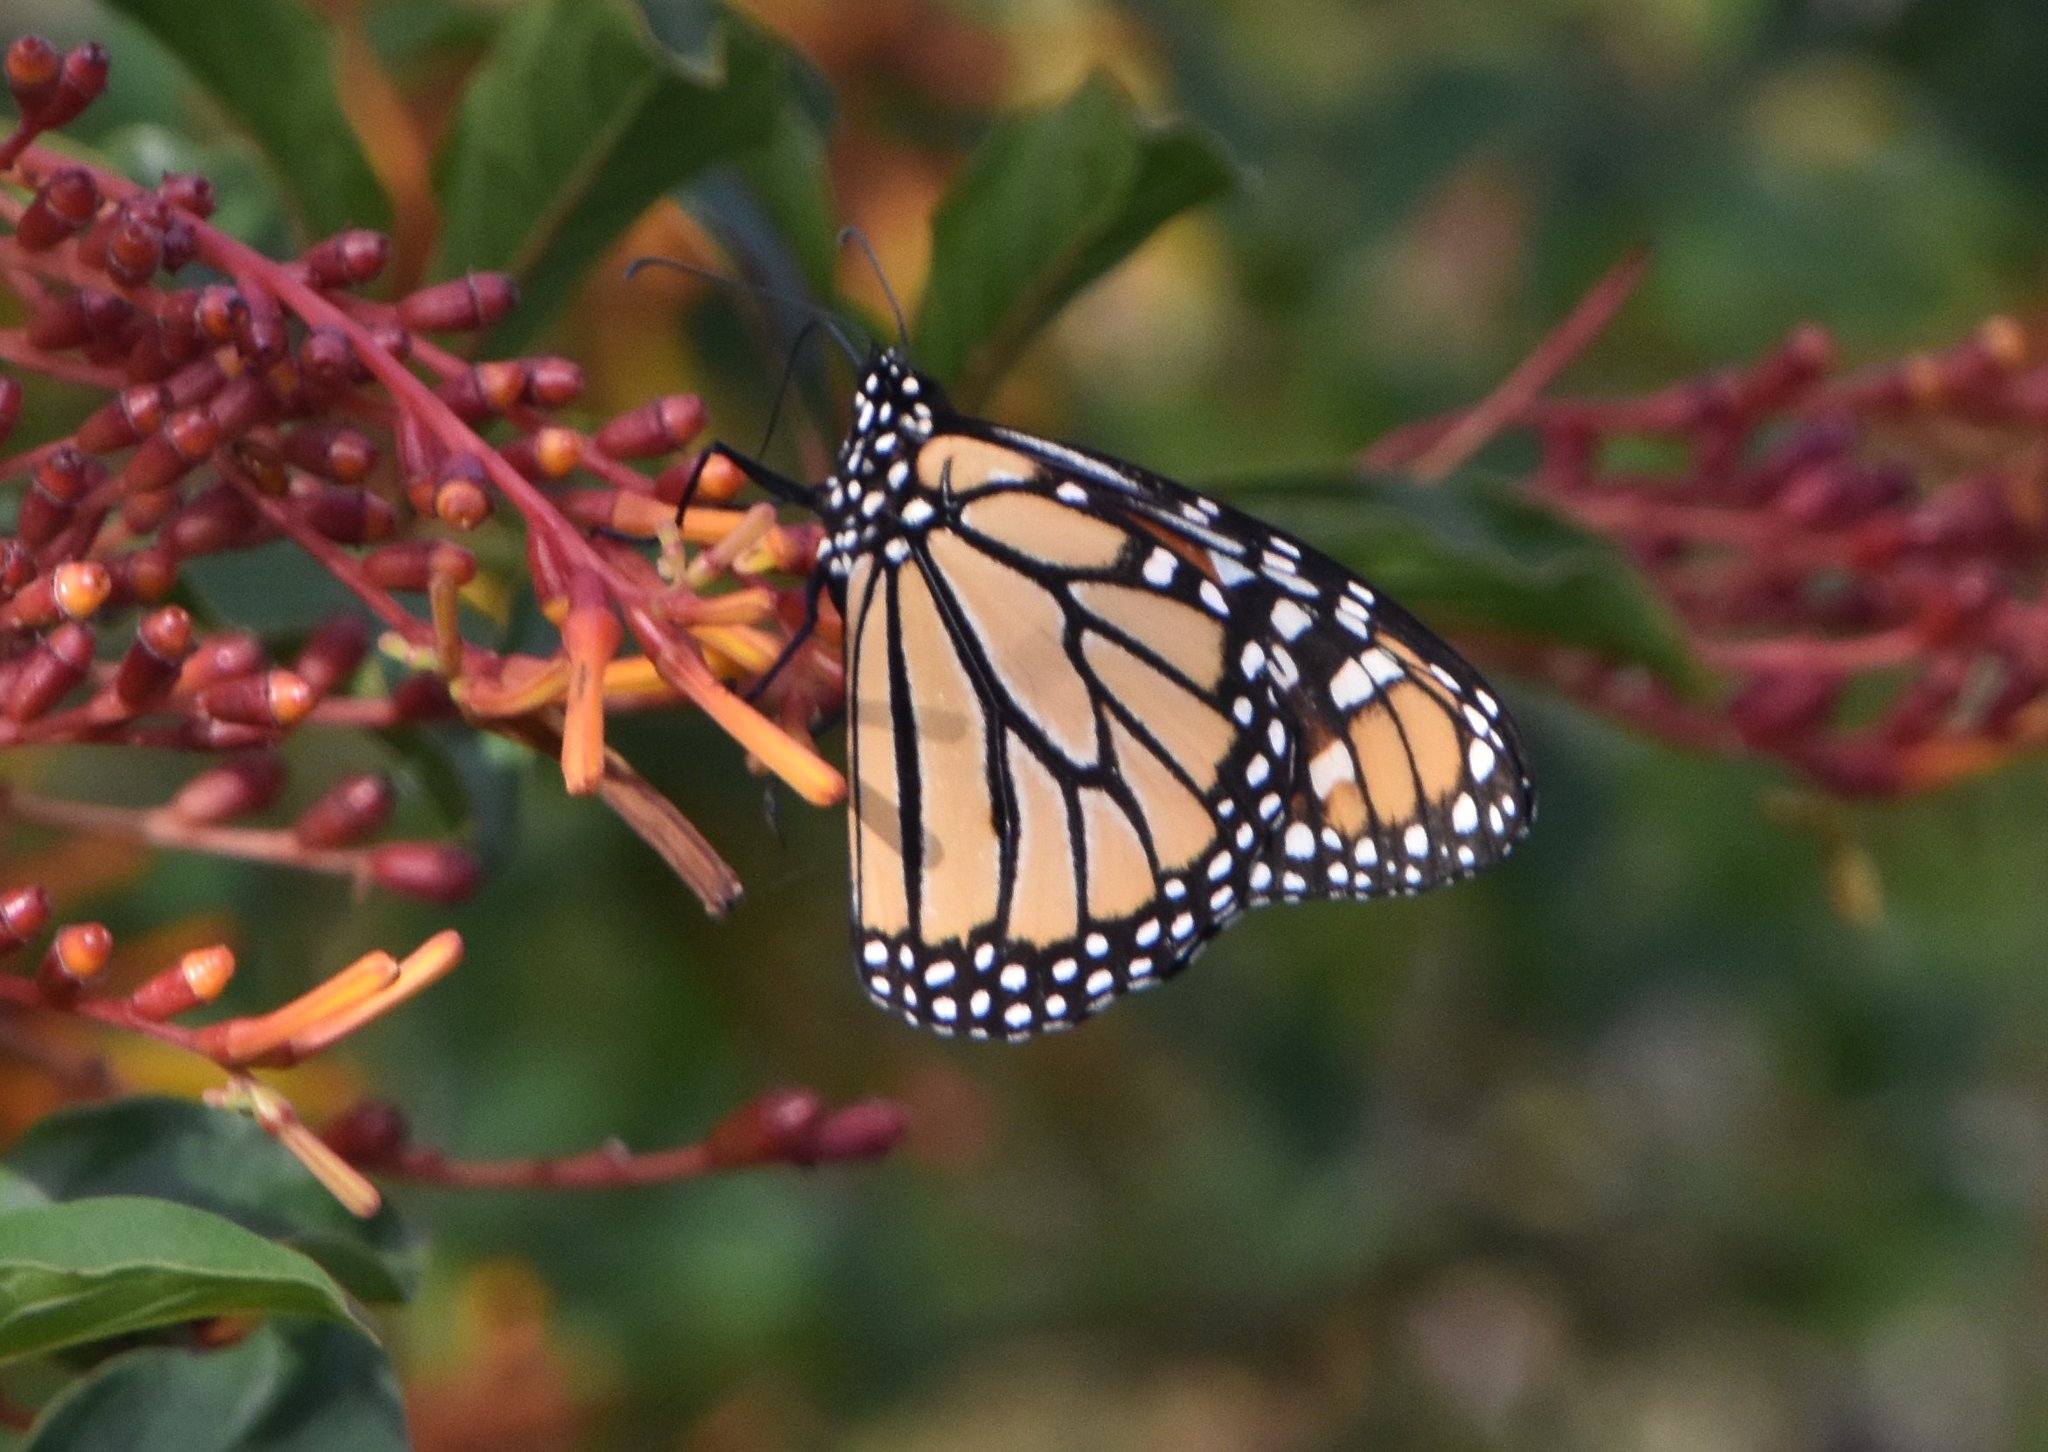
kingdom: Animalia
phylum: Arthropoda
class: Insecta
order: Lepidoptera
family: Nymphalidae
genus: Danaus
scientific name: Danaus plexippus
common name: Monarch
